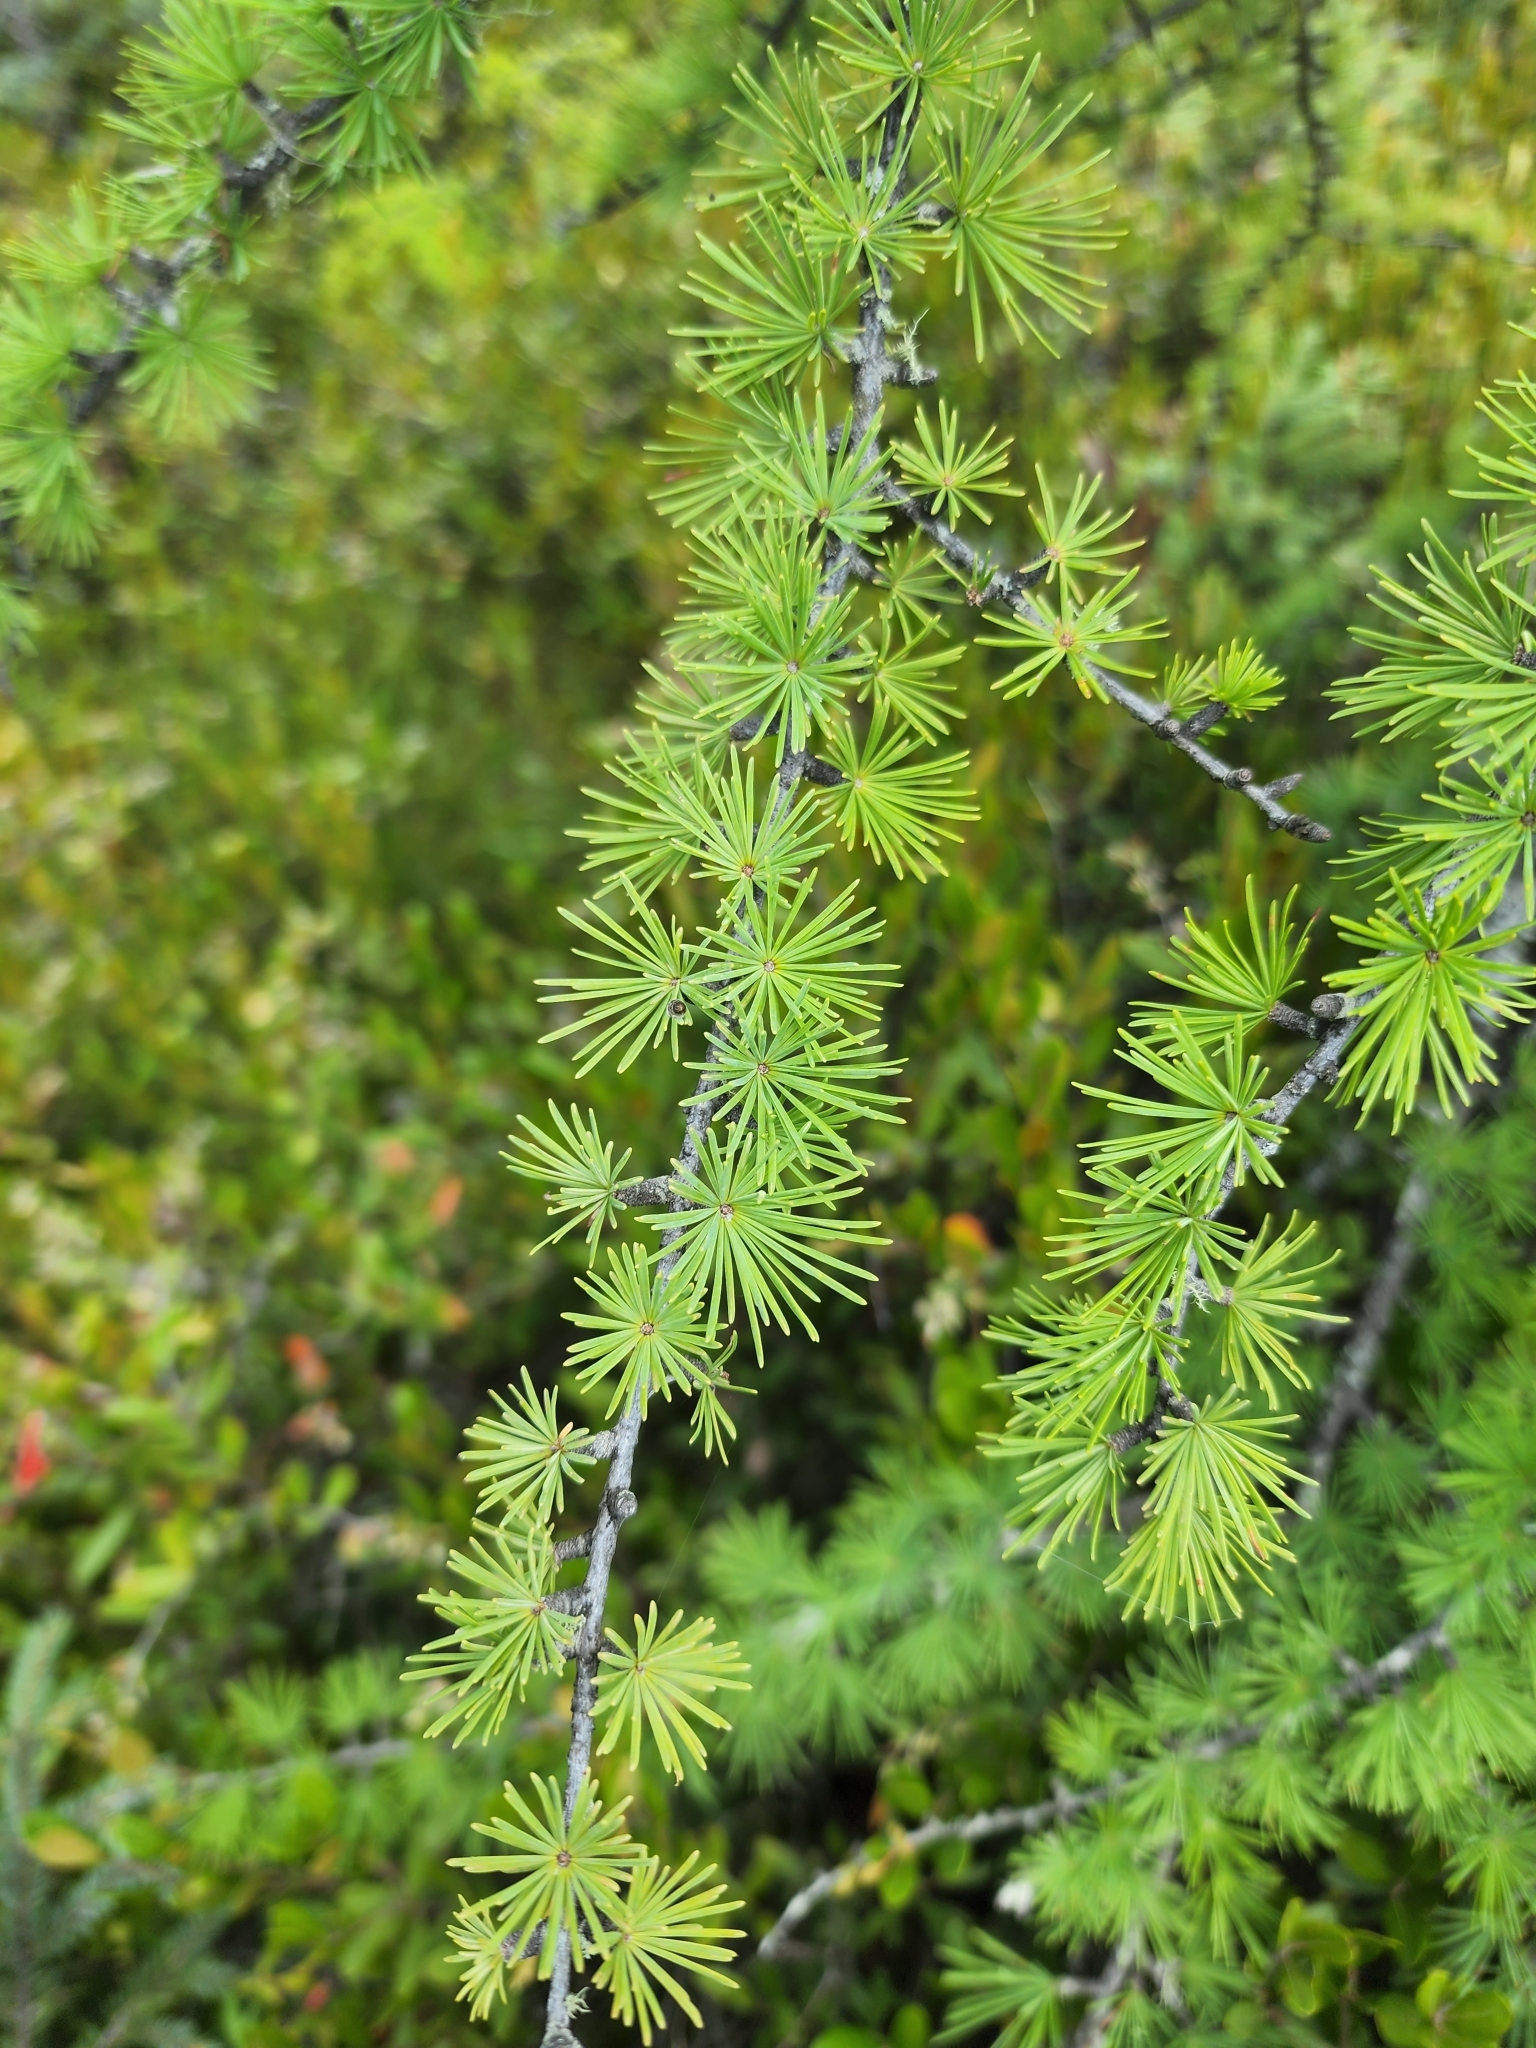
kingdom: Plantae
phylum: Tracheophyta
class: Pinopsida
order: Pinales
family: Pinaceae
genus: Larix
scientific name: Larix laricina
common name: American larch
